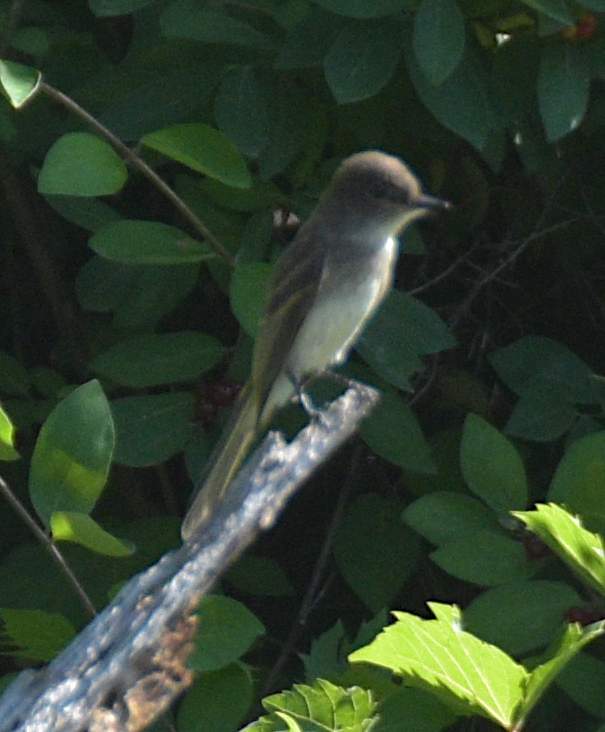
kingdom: Animalia
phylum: Chordata
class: Aves
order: Passeriformes
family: Tyrannidae
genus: Sayornis
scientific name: Sayornis phoebe
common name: Eastern phoebe
